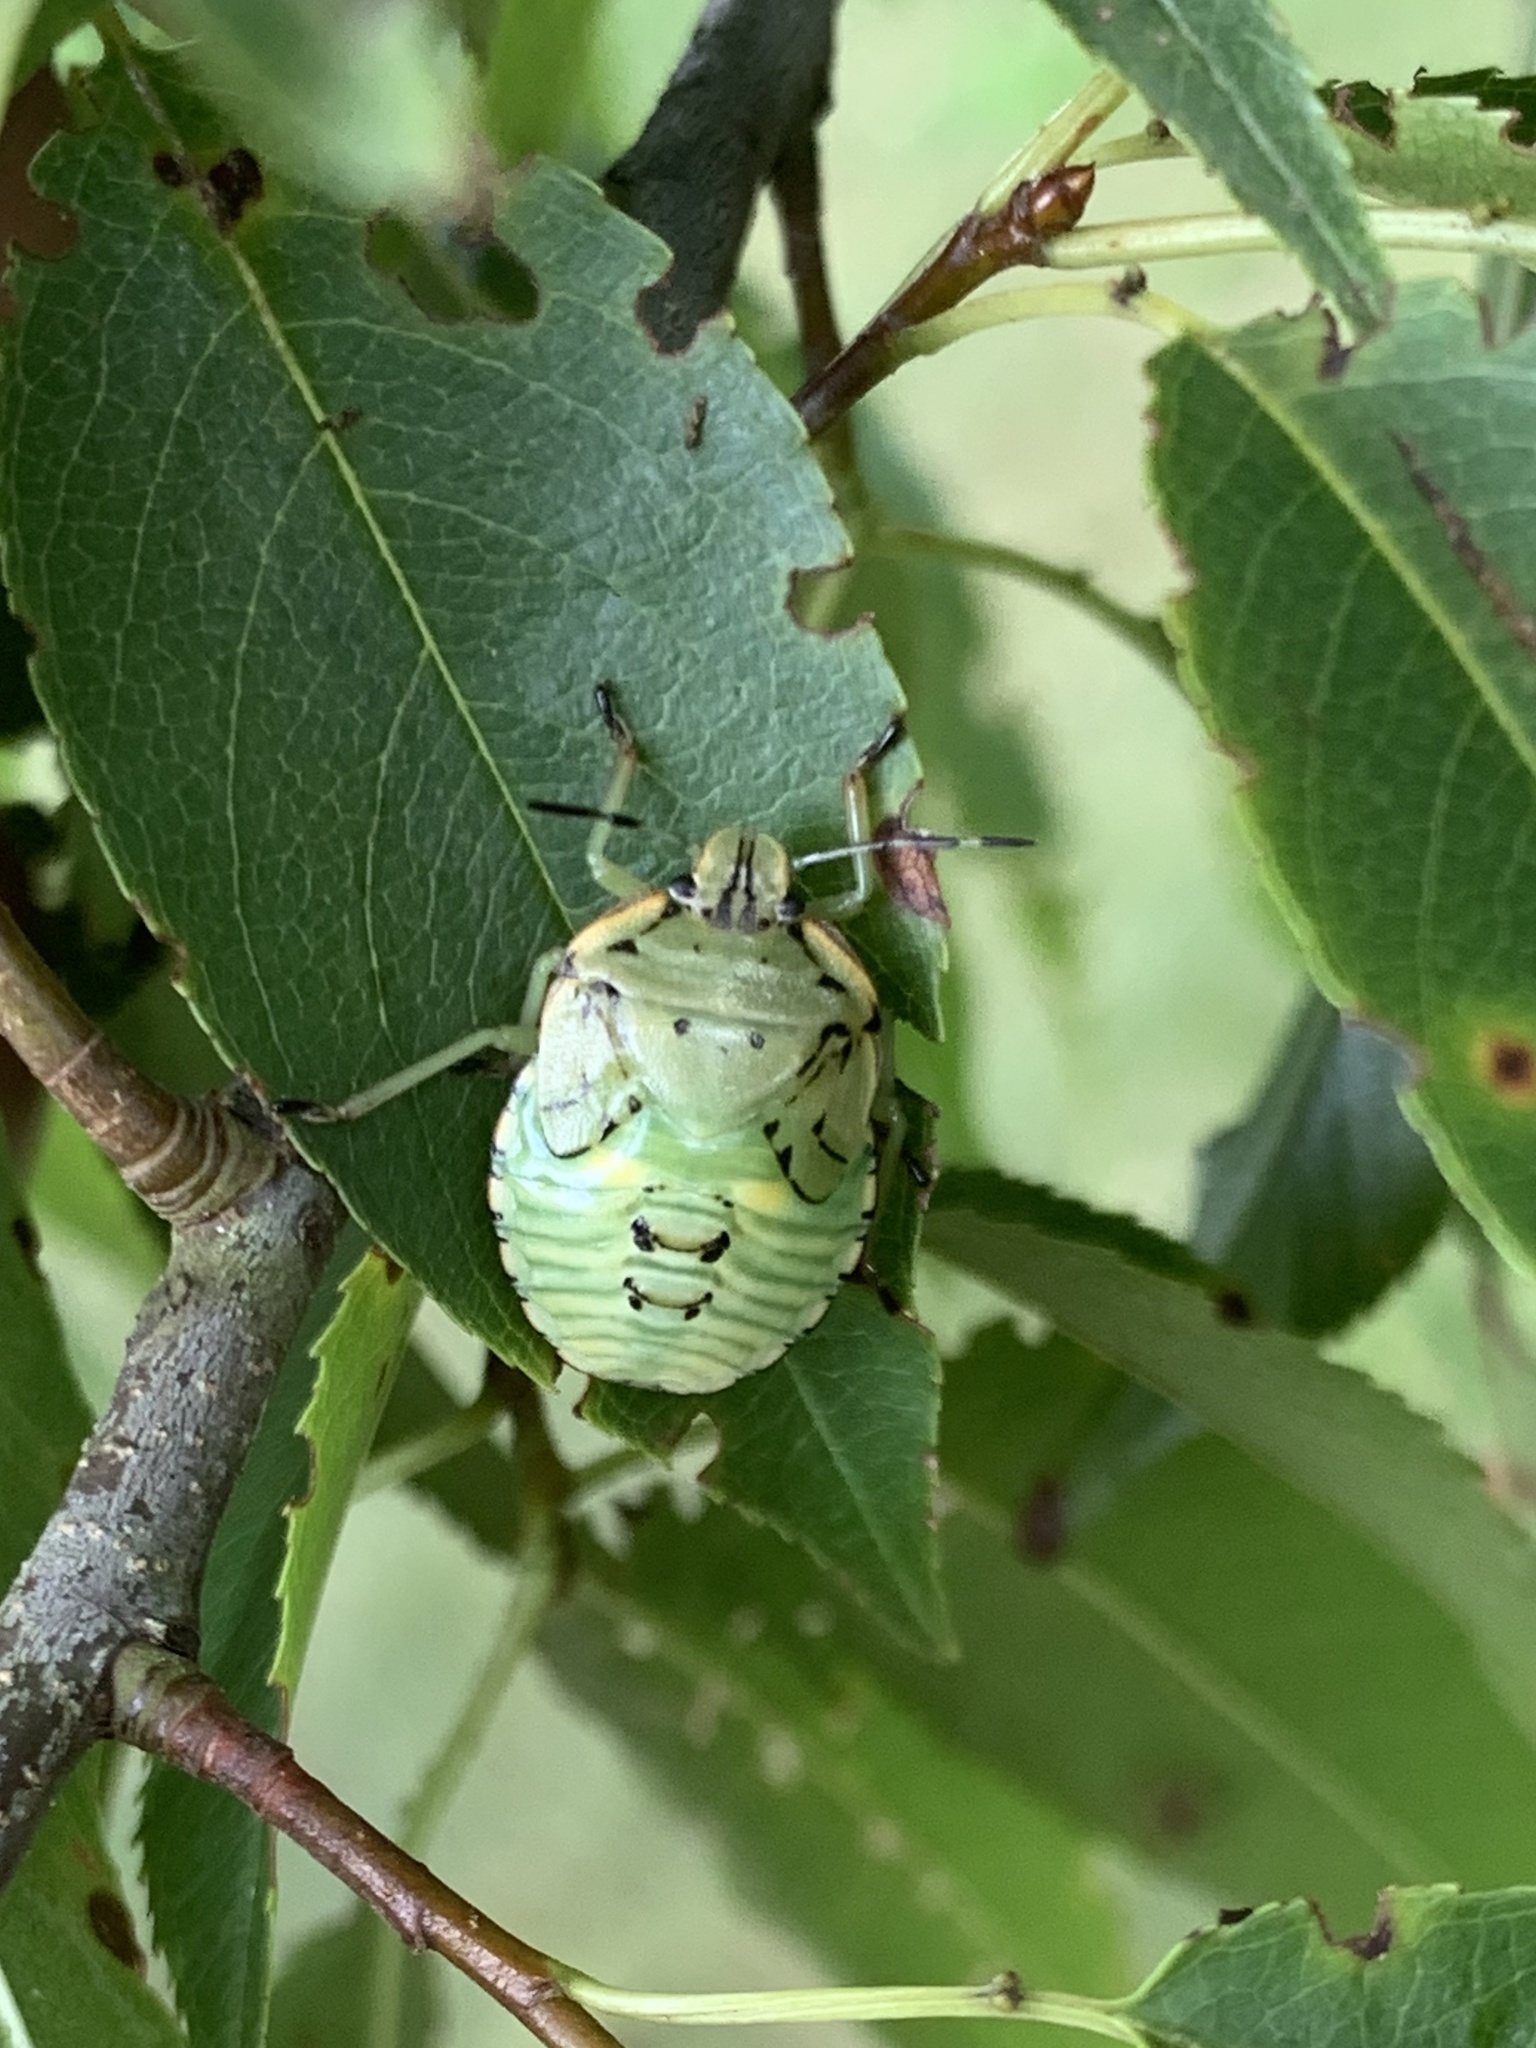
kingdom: Animalia
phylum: Arthropoda
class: Insecta
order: Hemiptera
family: Pentatomidae
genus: Chinavia
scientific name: Chinavia hilaris
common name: Green stink bug
